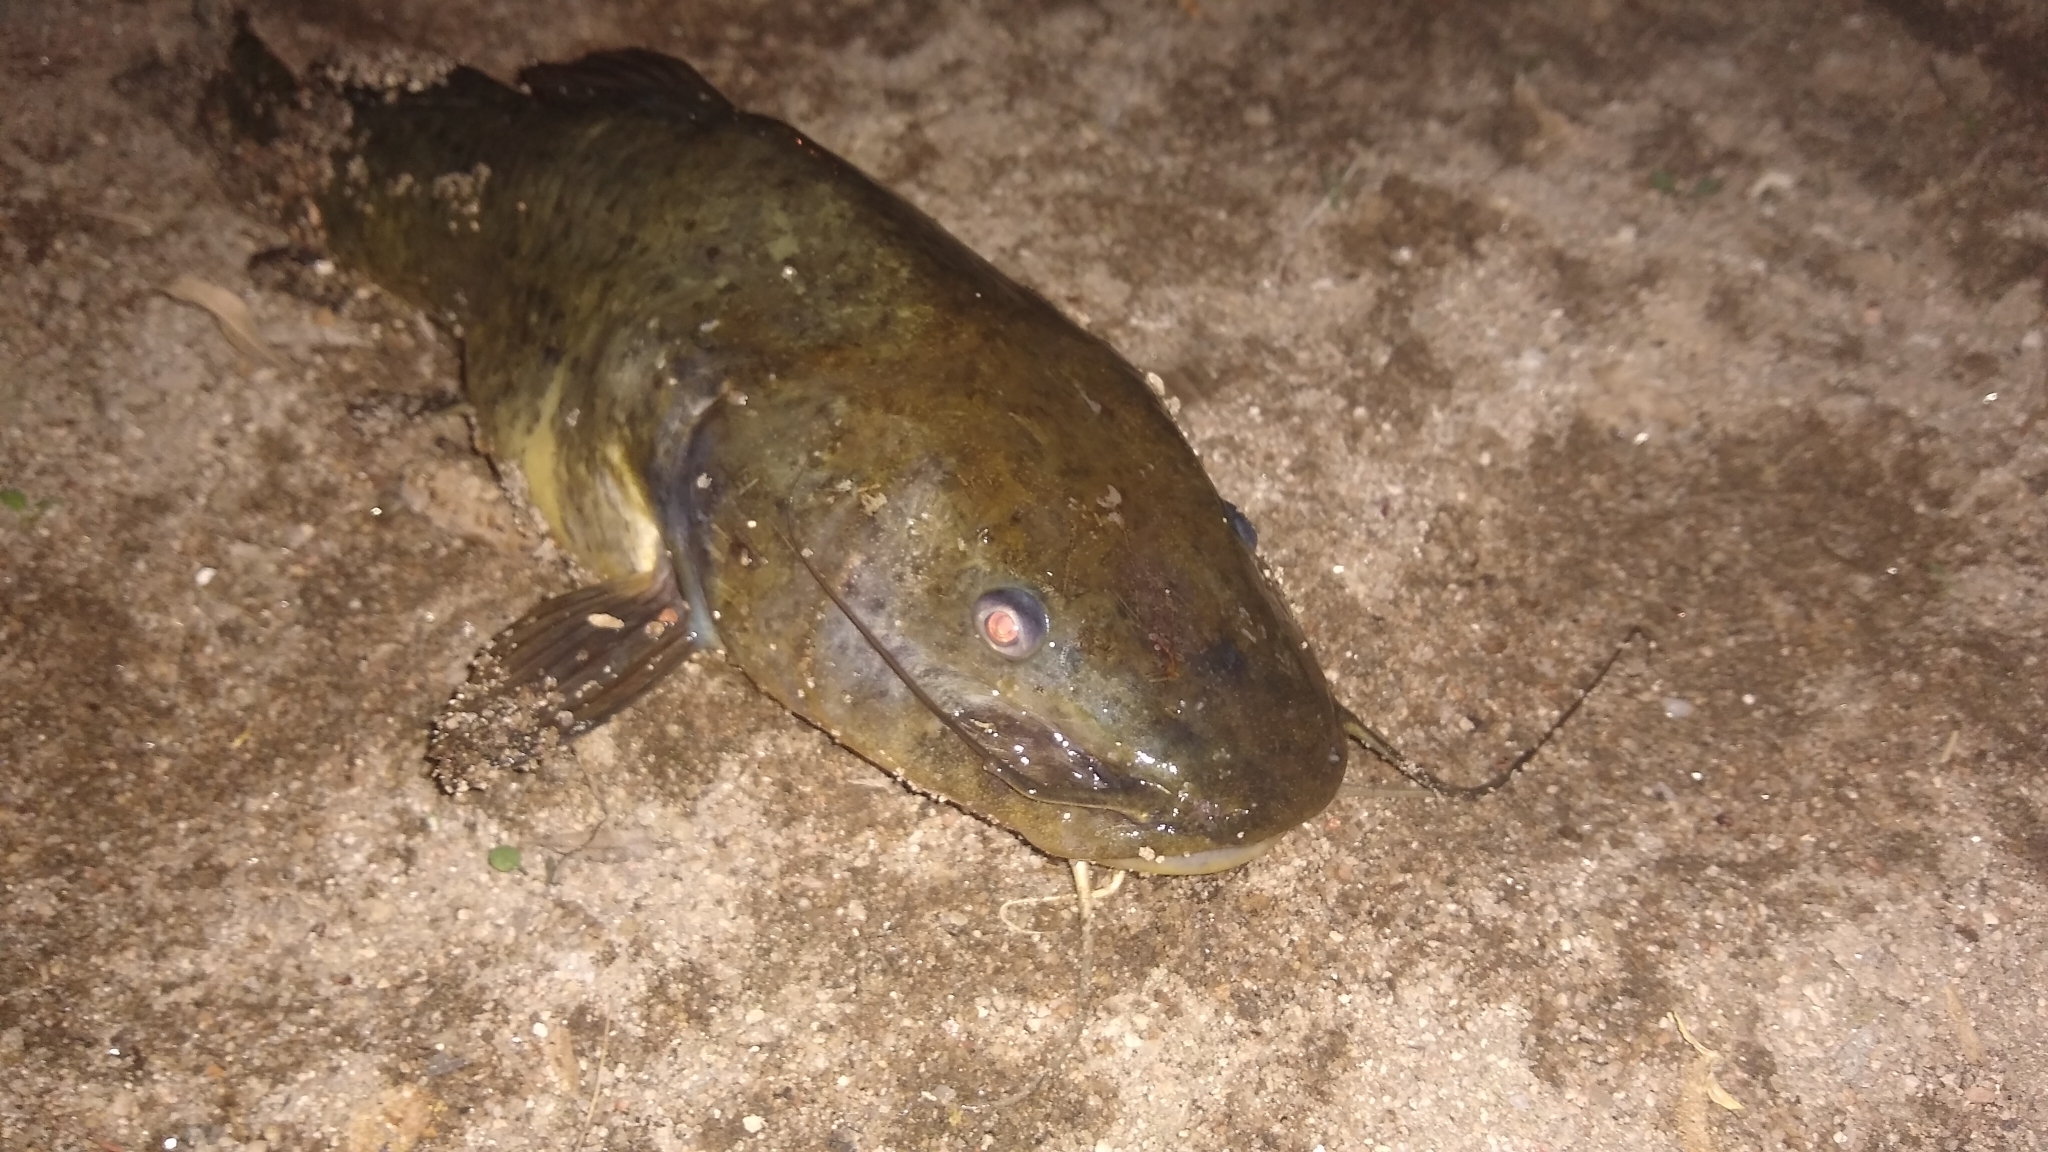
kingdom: Animalia
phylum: Chordata
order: Siluriformes
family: Heptapteridae
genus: Rhamdia
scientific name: Rhamdia quelen
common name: Catfish
